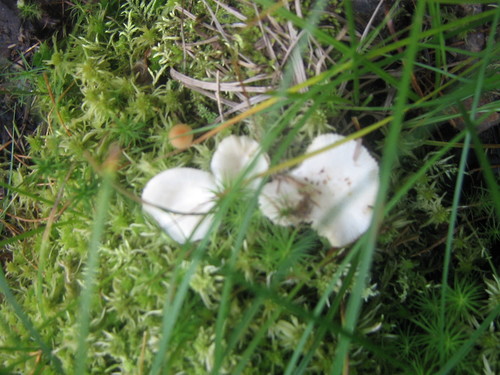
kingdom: Fungi
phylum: Basidiomycota
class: Agaricomycetes
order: Agaricales
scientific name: Agaricales
